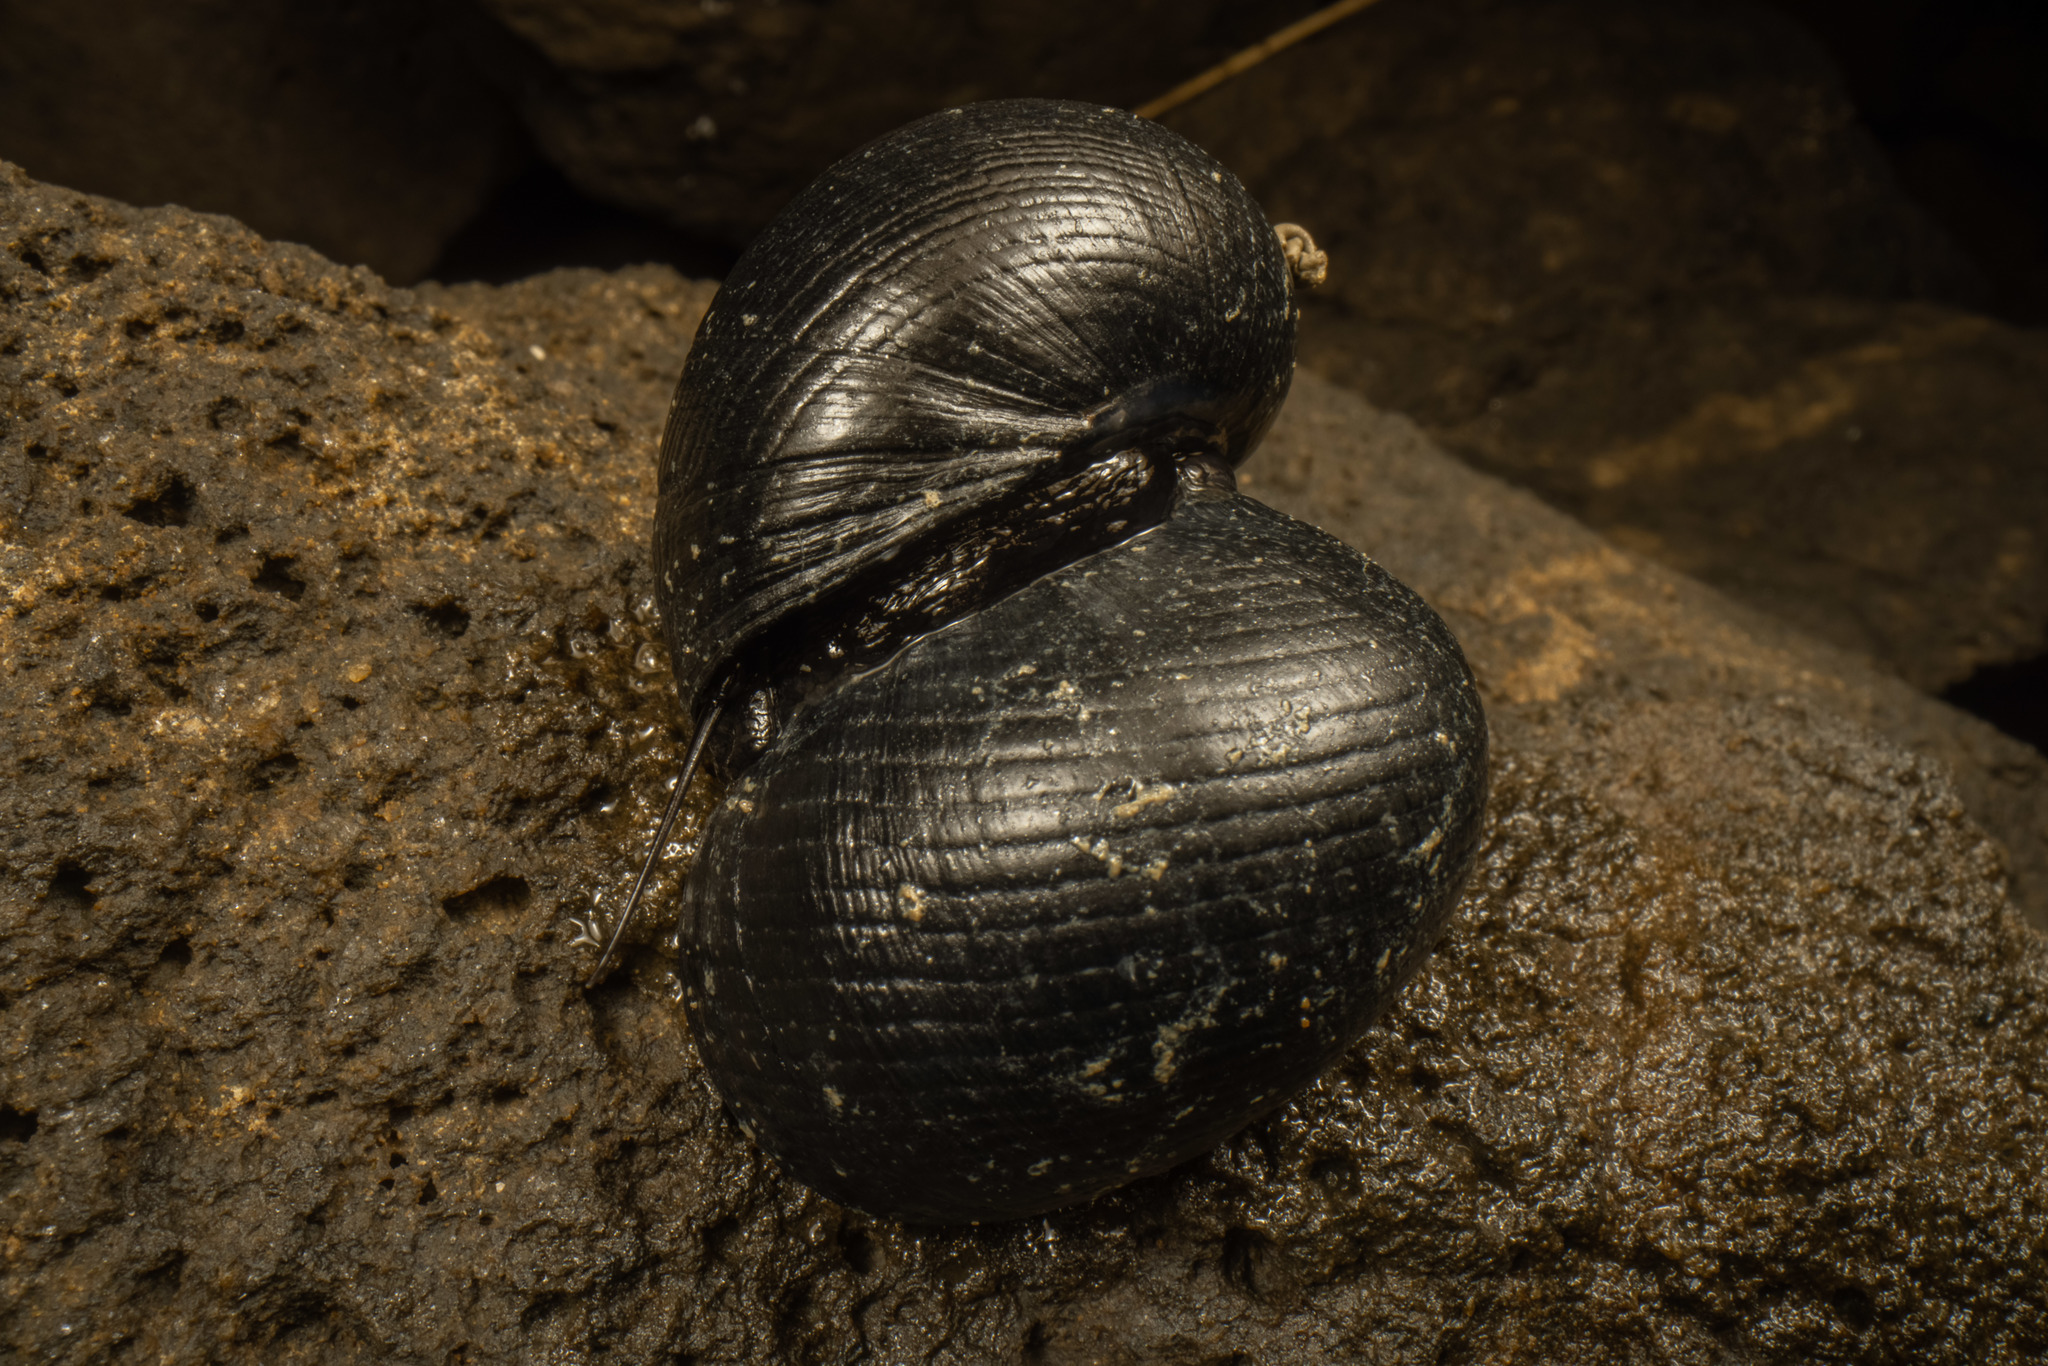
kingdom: Animalia
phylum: Mollusca
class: Gastropoda
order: Cycloneritida
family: Neritidae
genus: Nerita
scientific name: Nerita melanotragus
